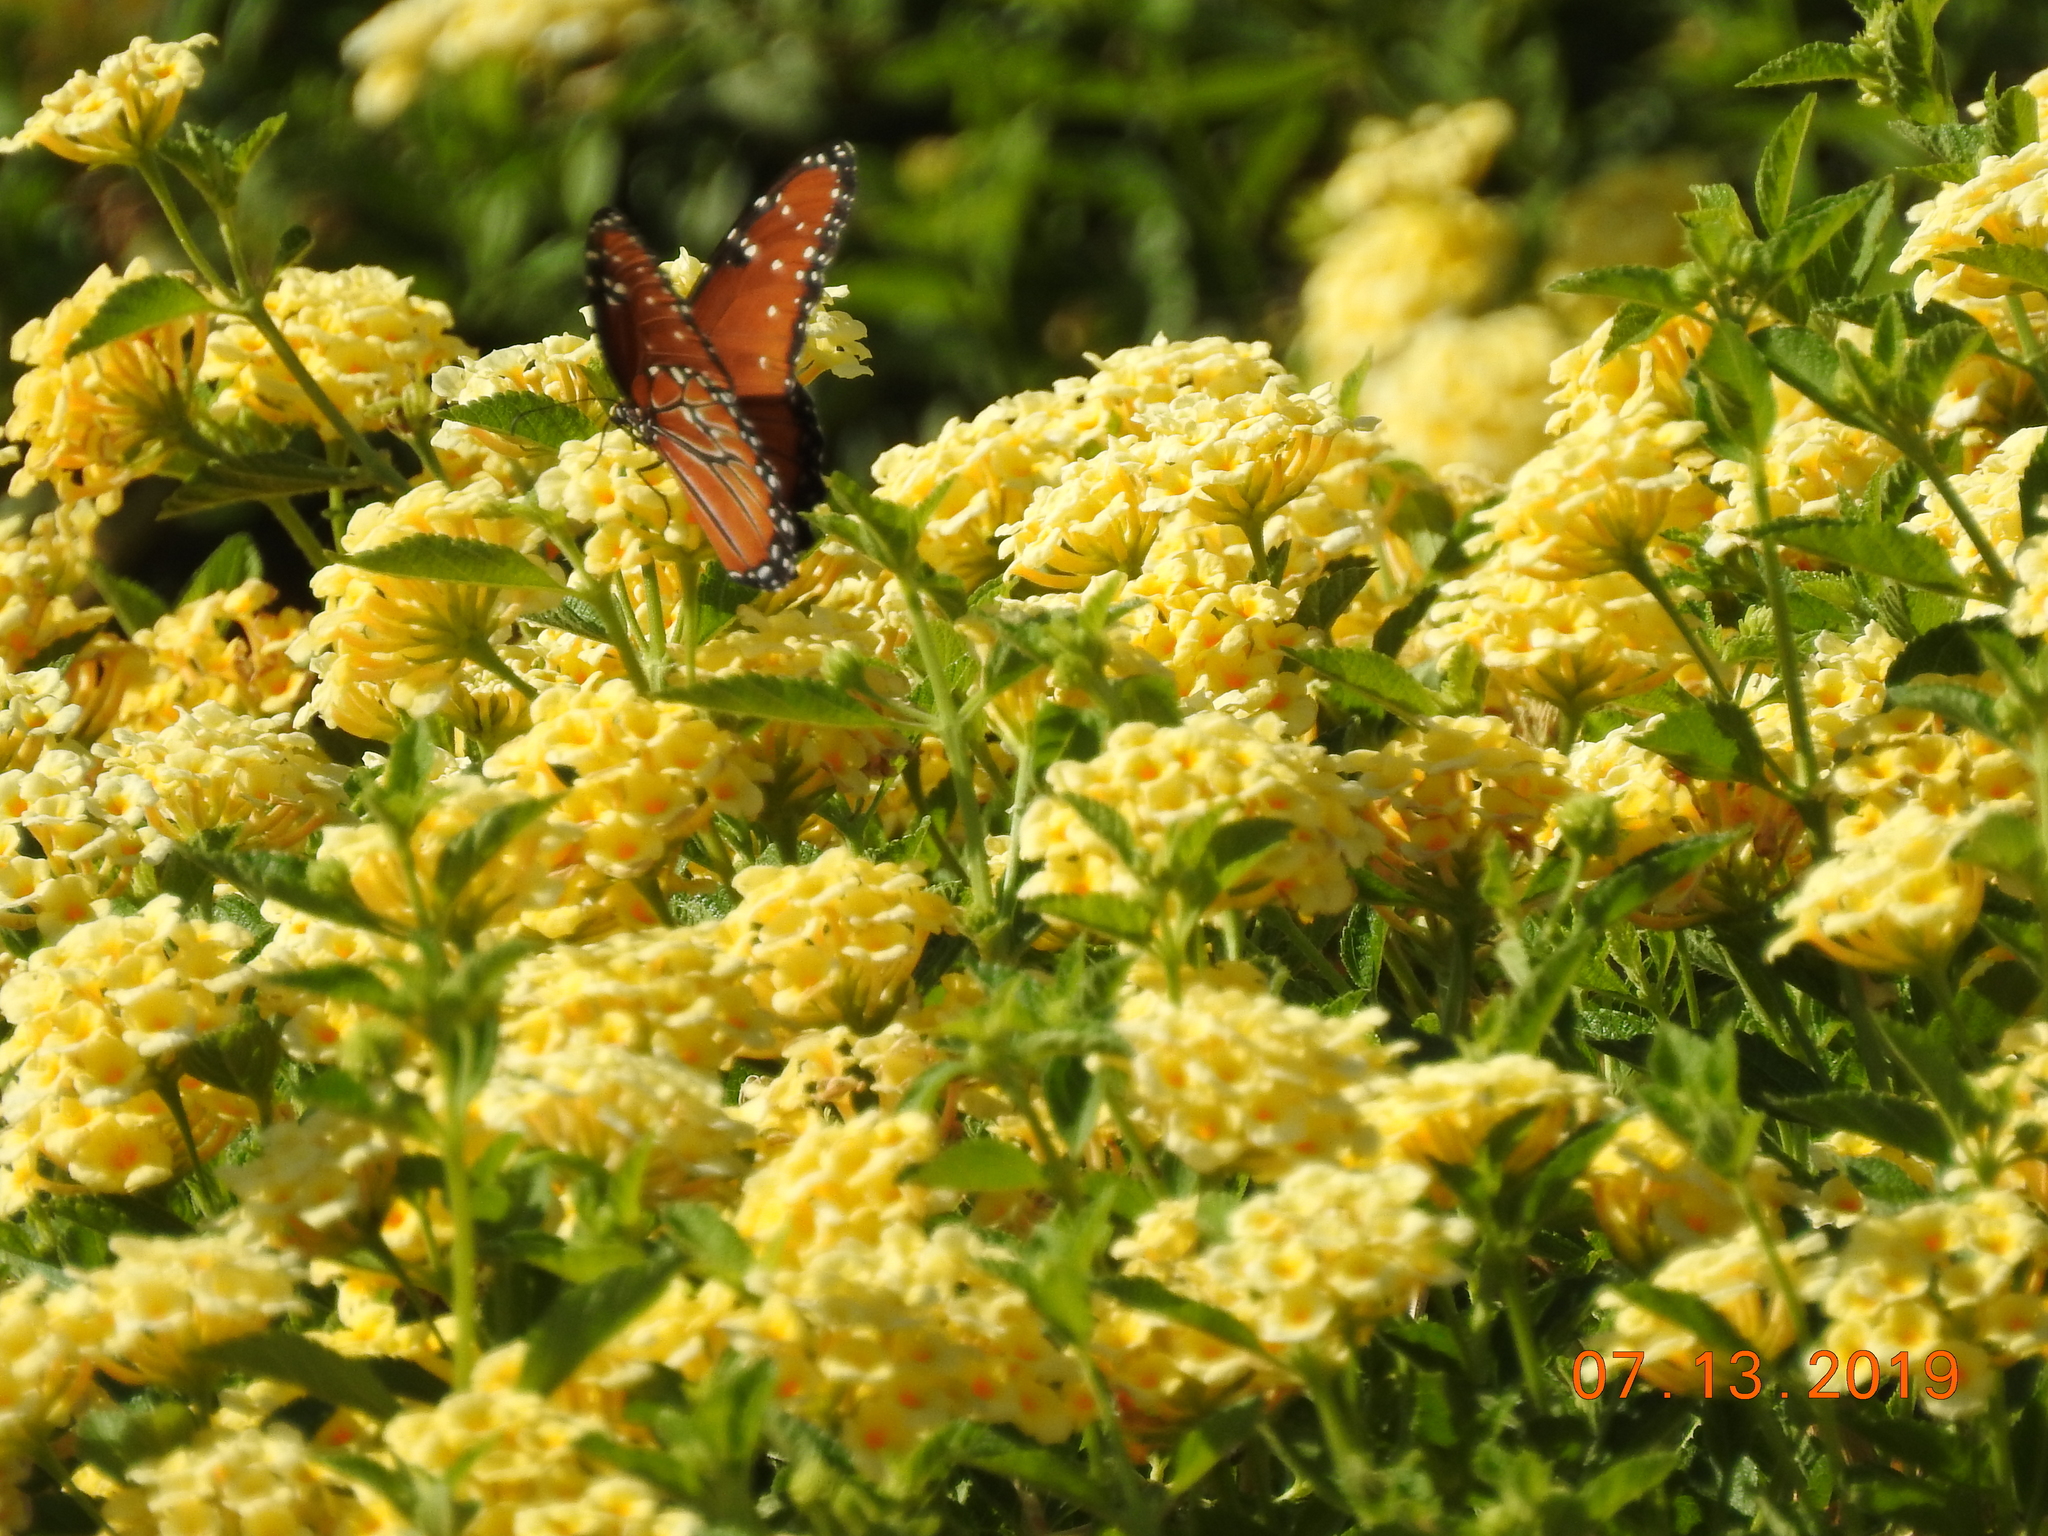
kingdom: Animalia
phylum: Arthropoda
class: Insecta
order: Lepidoptera
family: Nymphalidae
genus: Danaus
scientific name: Danaus gilippus
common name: Queen
